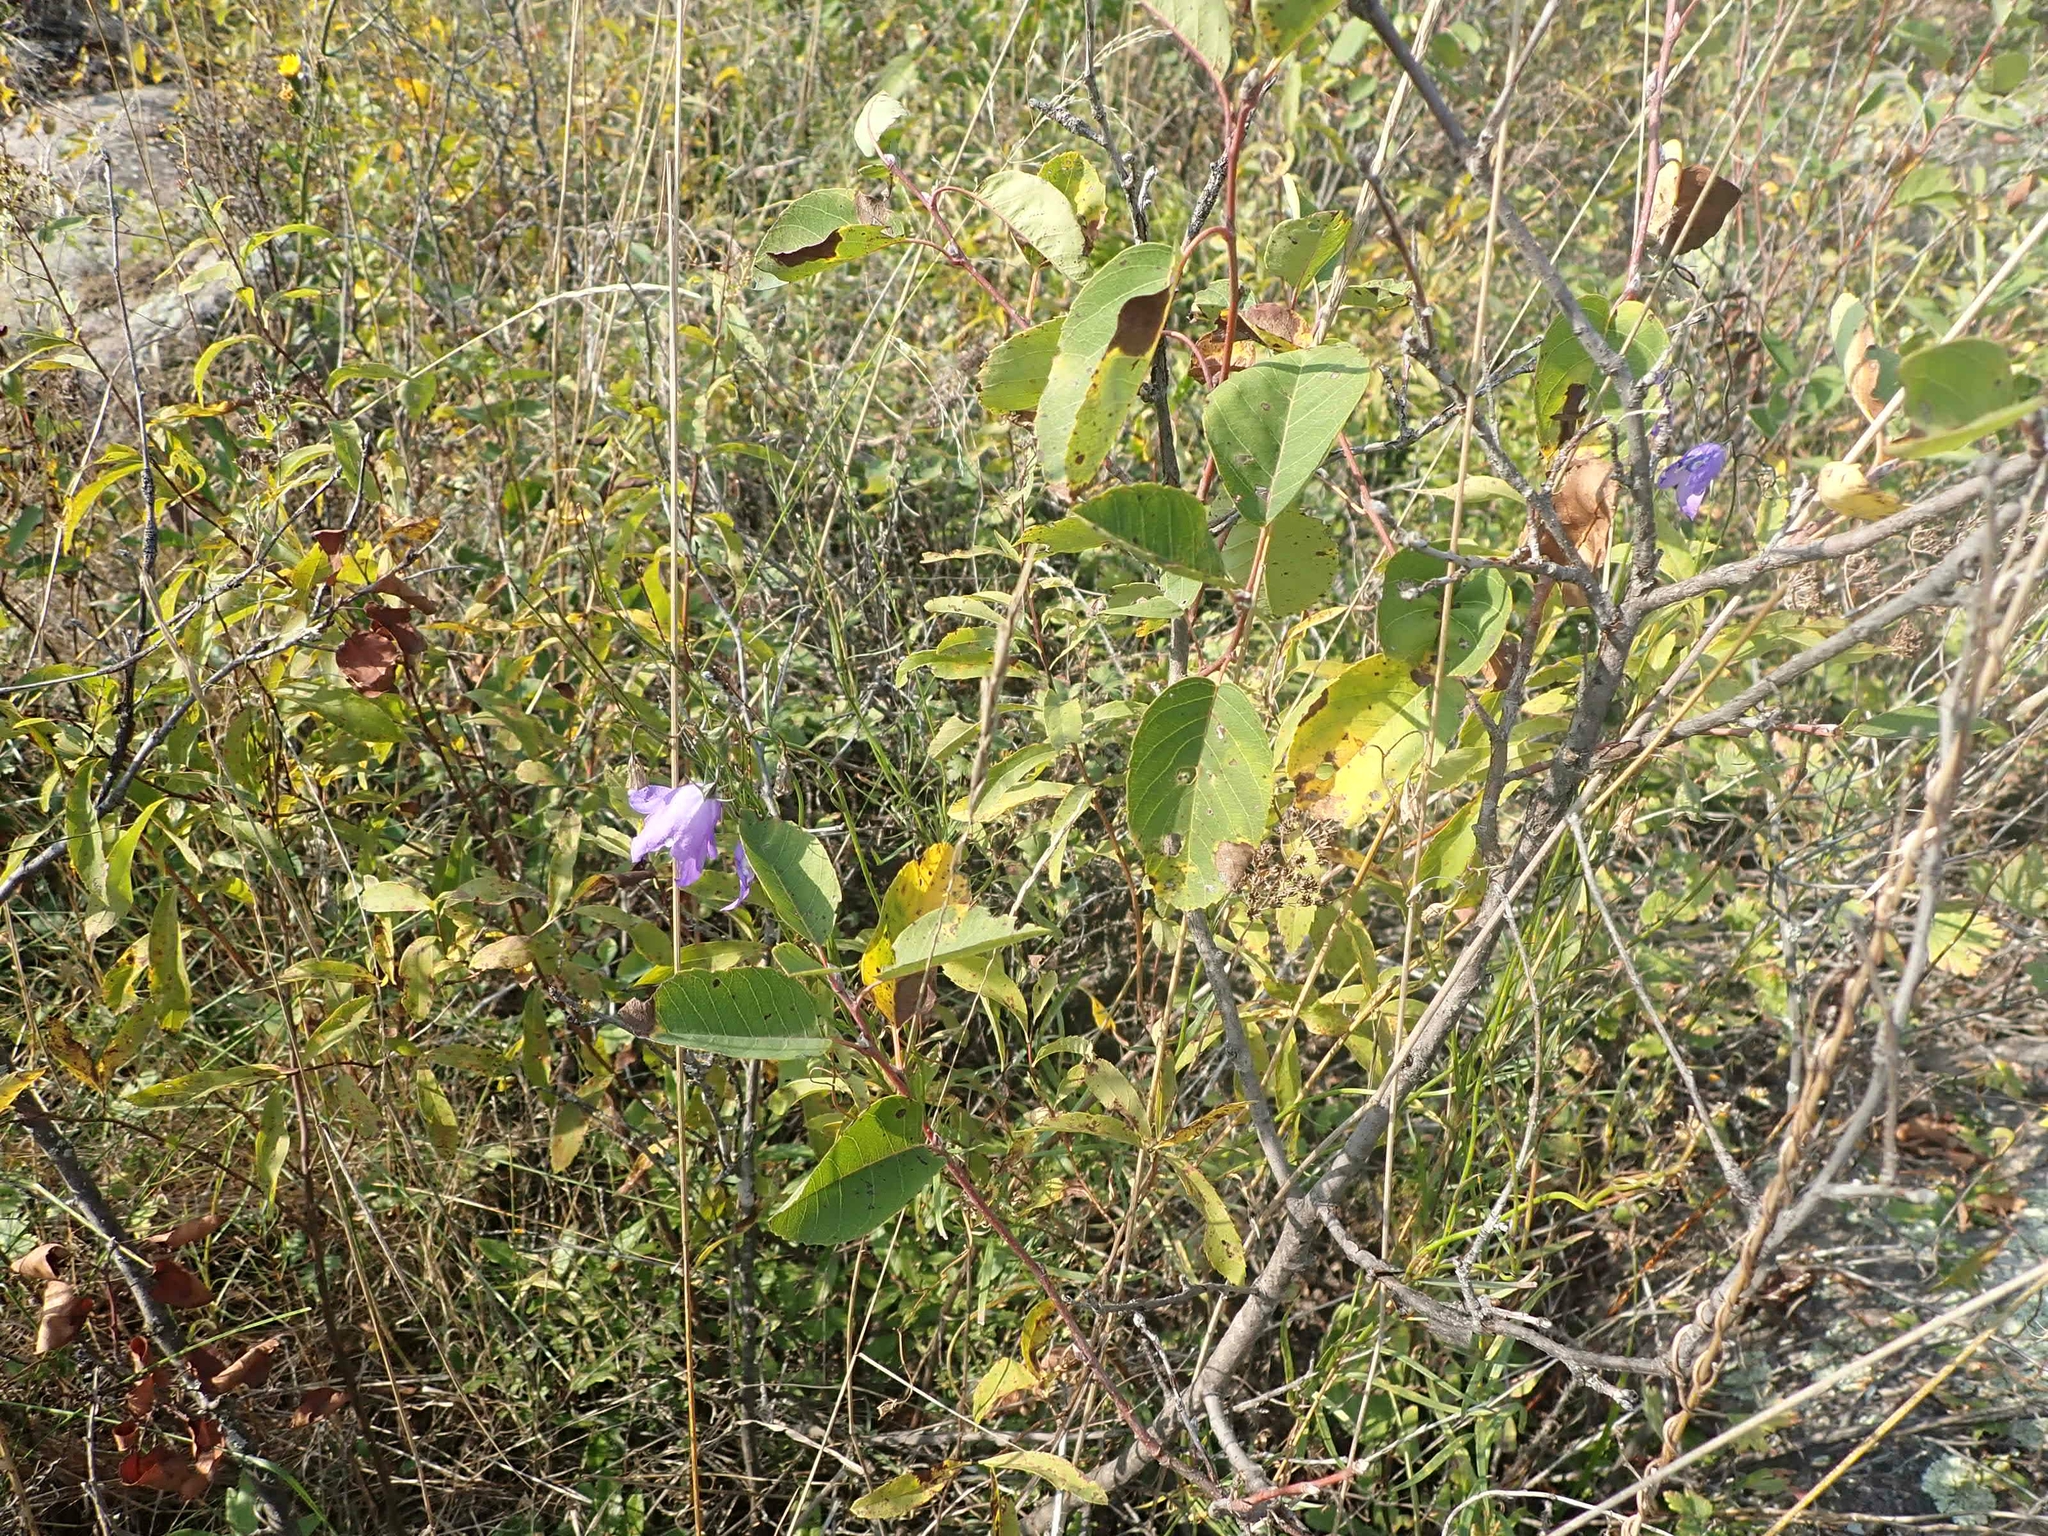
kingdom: Plantae
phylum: Tracheophyta
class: Magnoliopsida
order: Asterales
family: Campanulaceae
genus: Campanula
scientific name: Campanula petiolata
